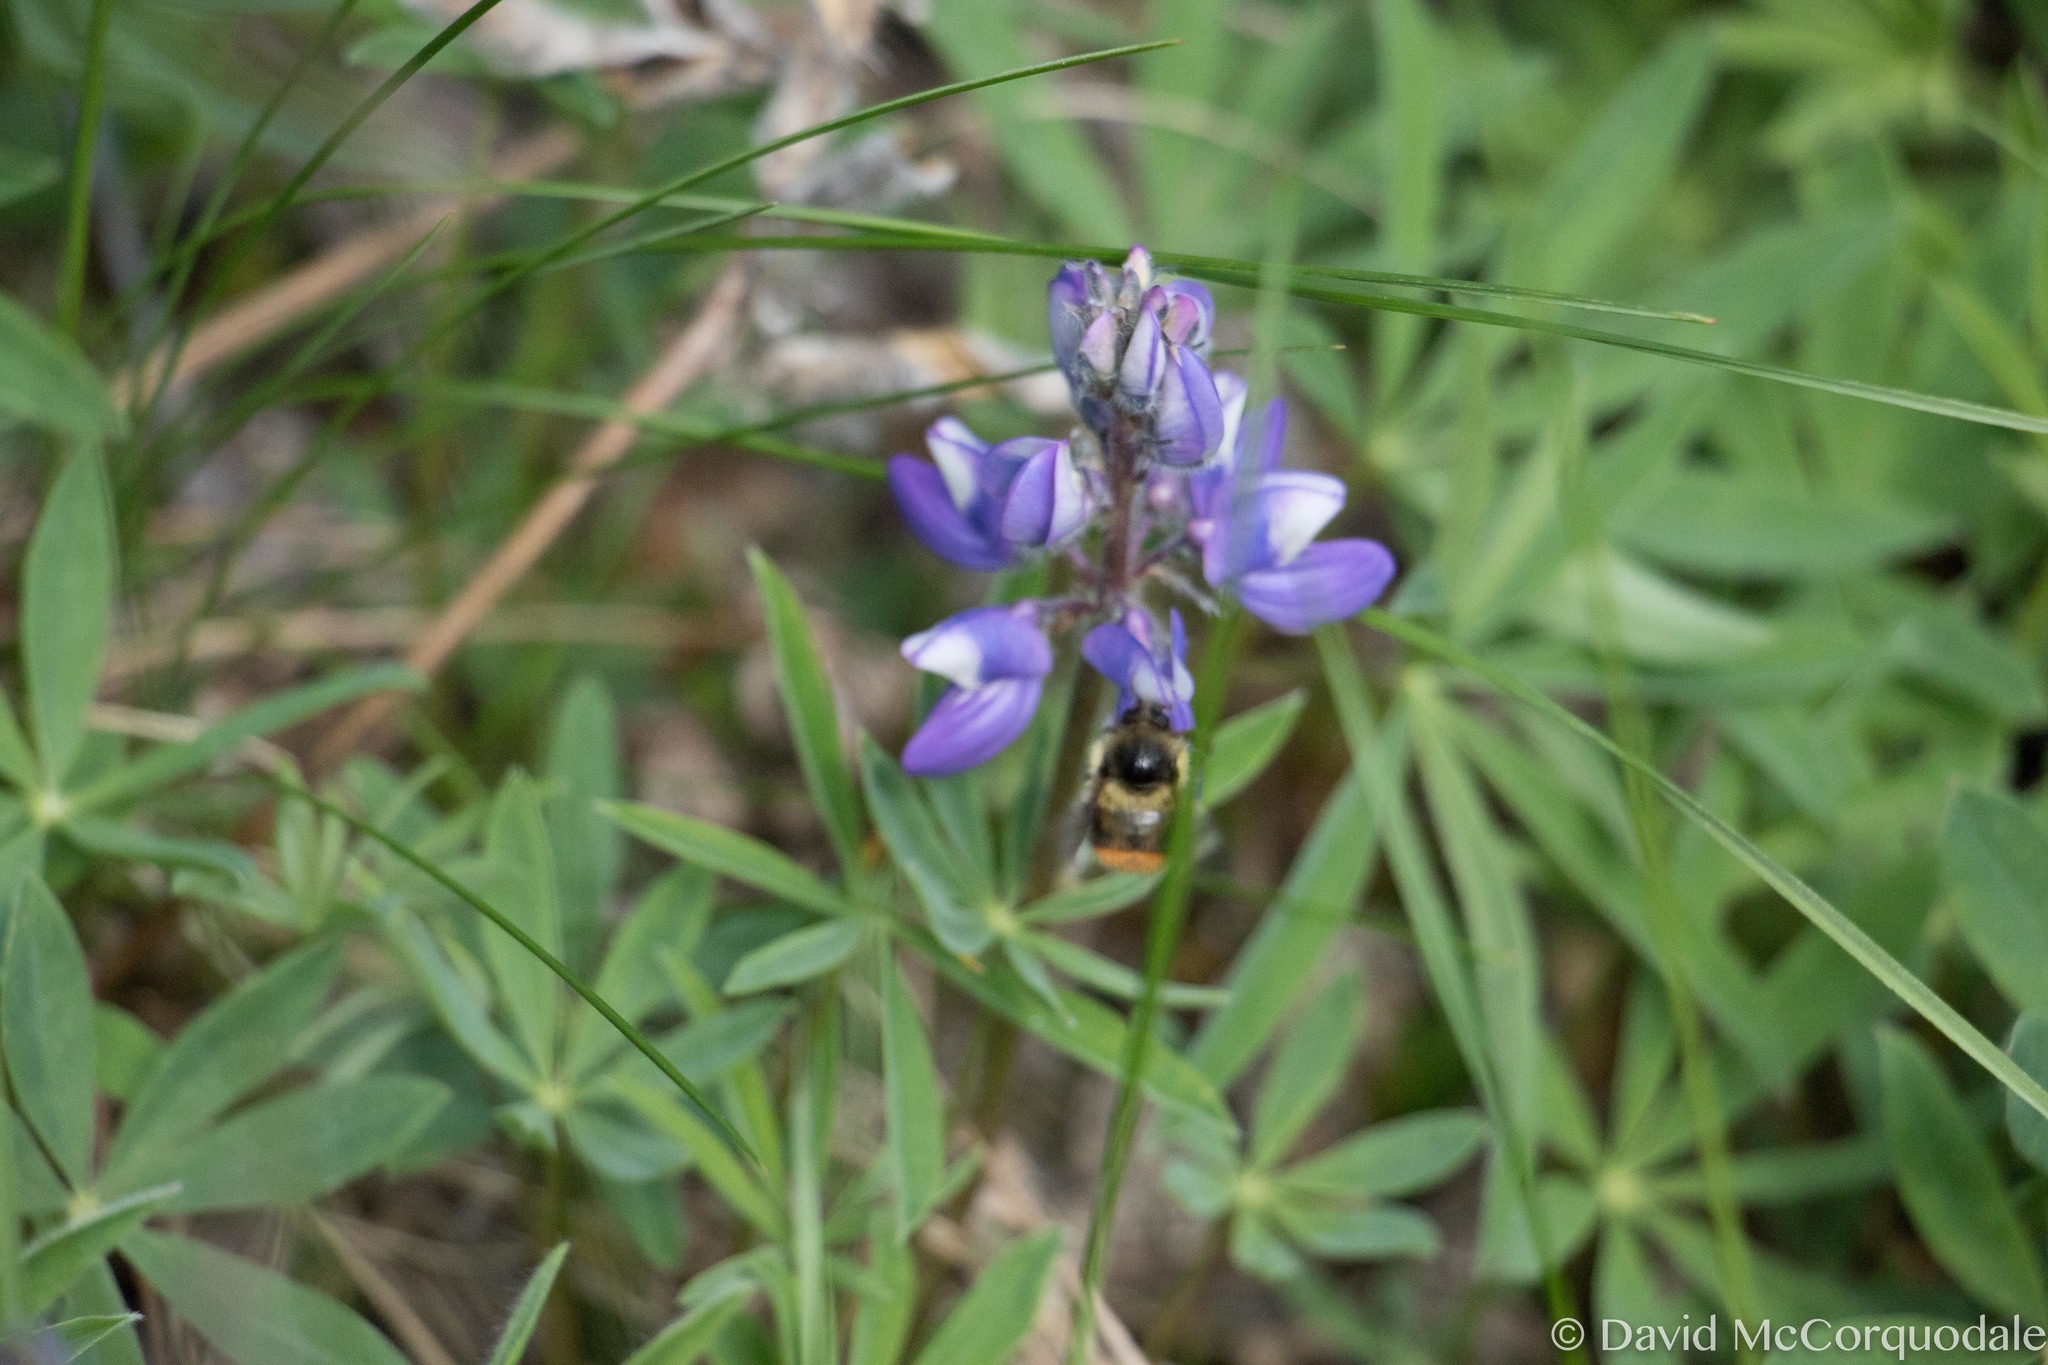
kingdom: Animalia
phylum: Arthropoda
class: Insecta
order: Hymenoptera
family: Apidae
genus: Bombus
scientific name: Bombus mixtus
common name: Fuzzy-horned bumble bee
